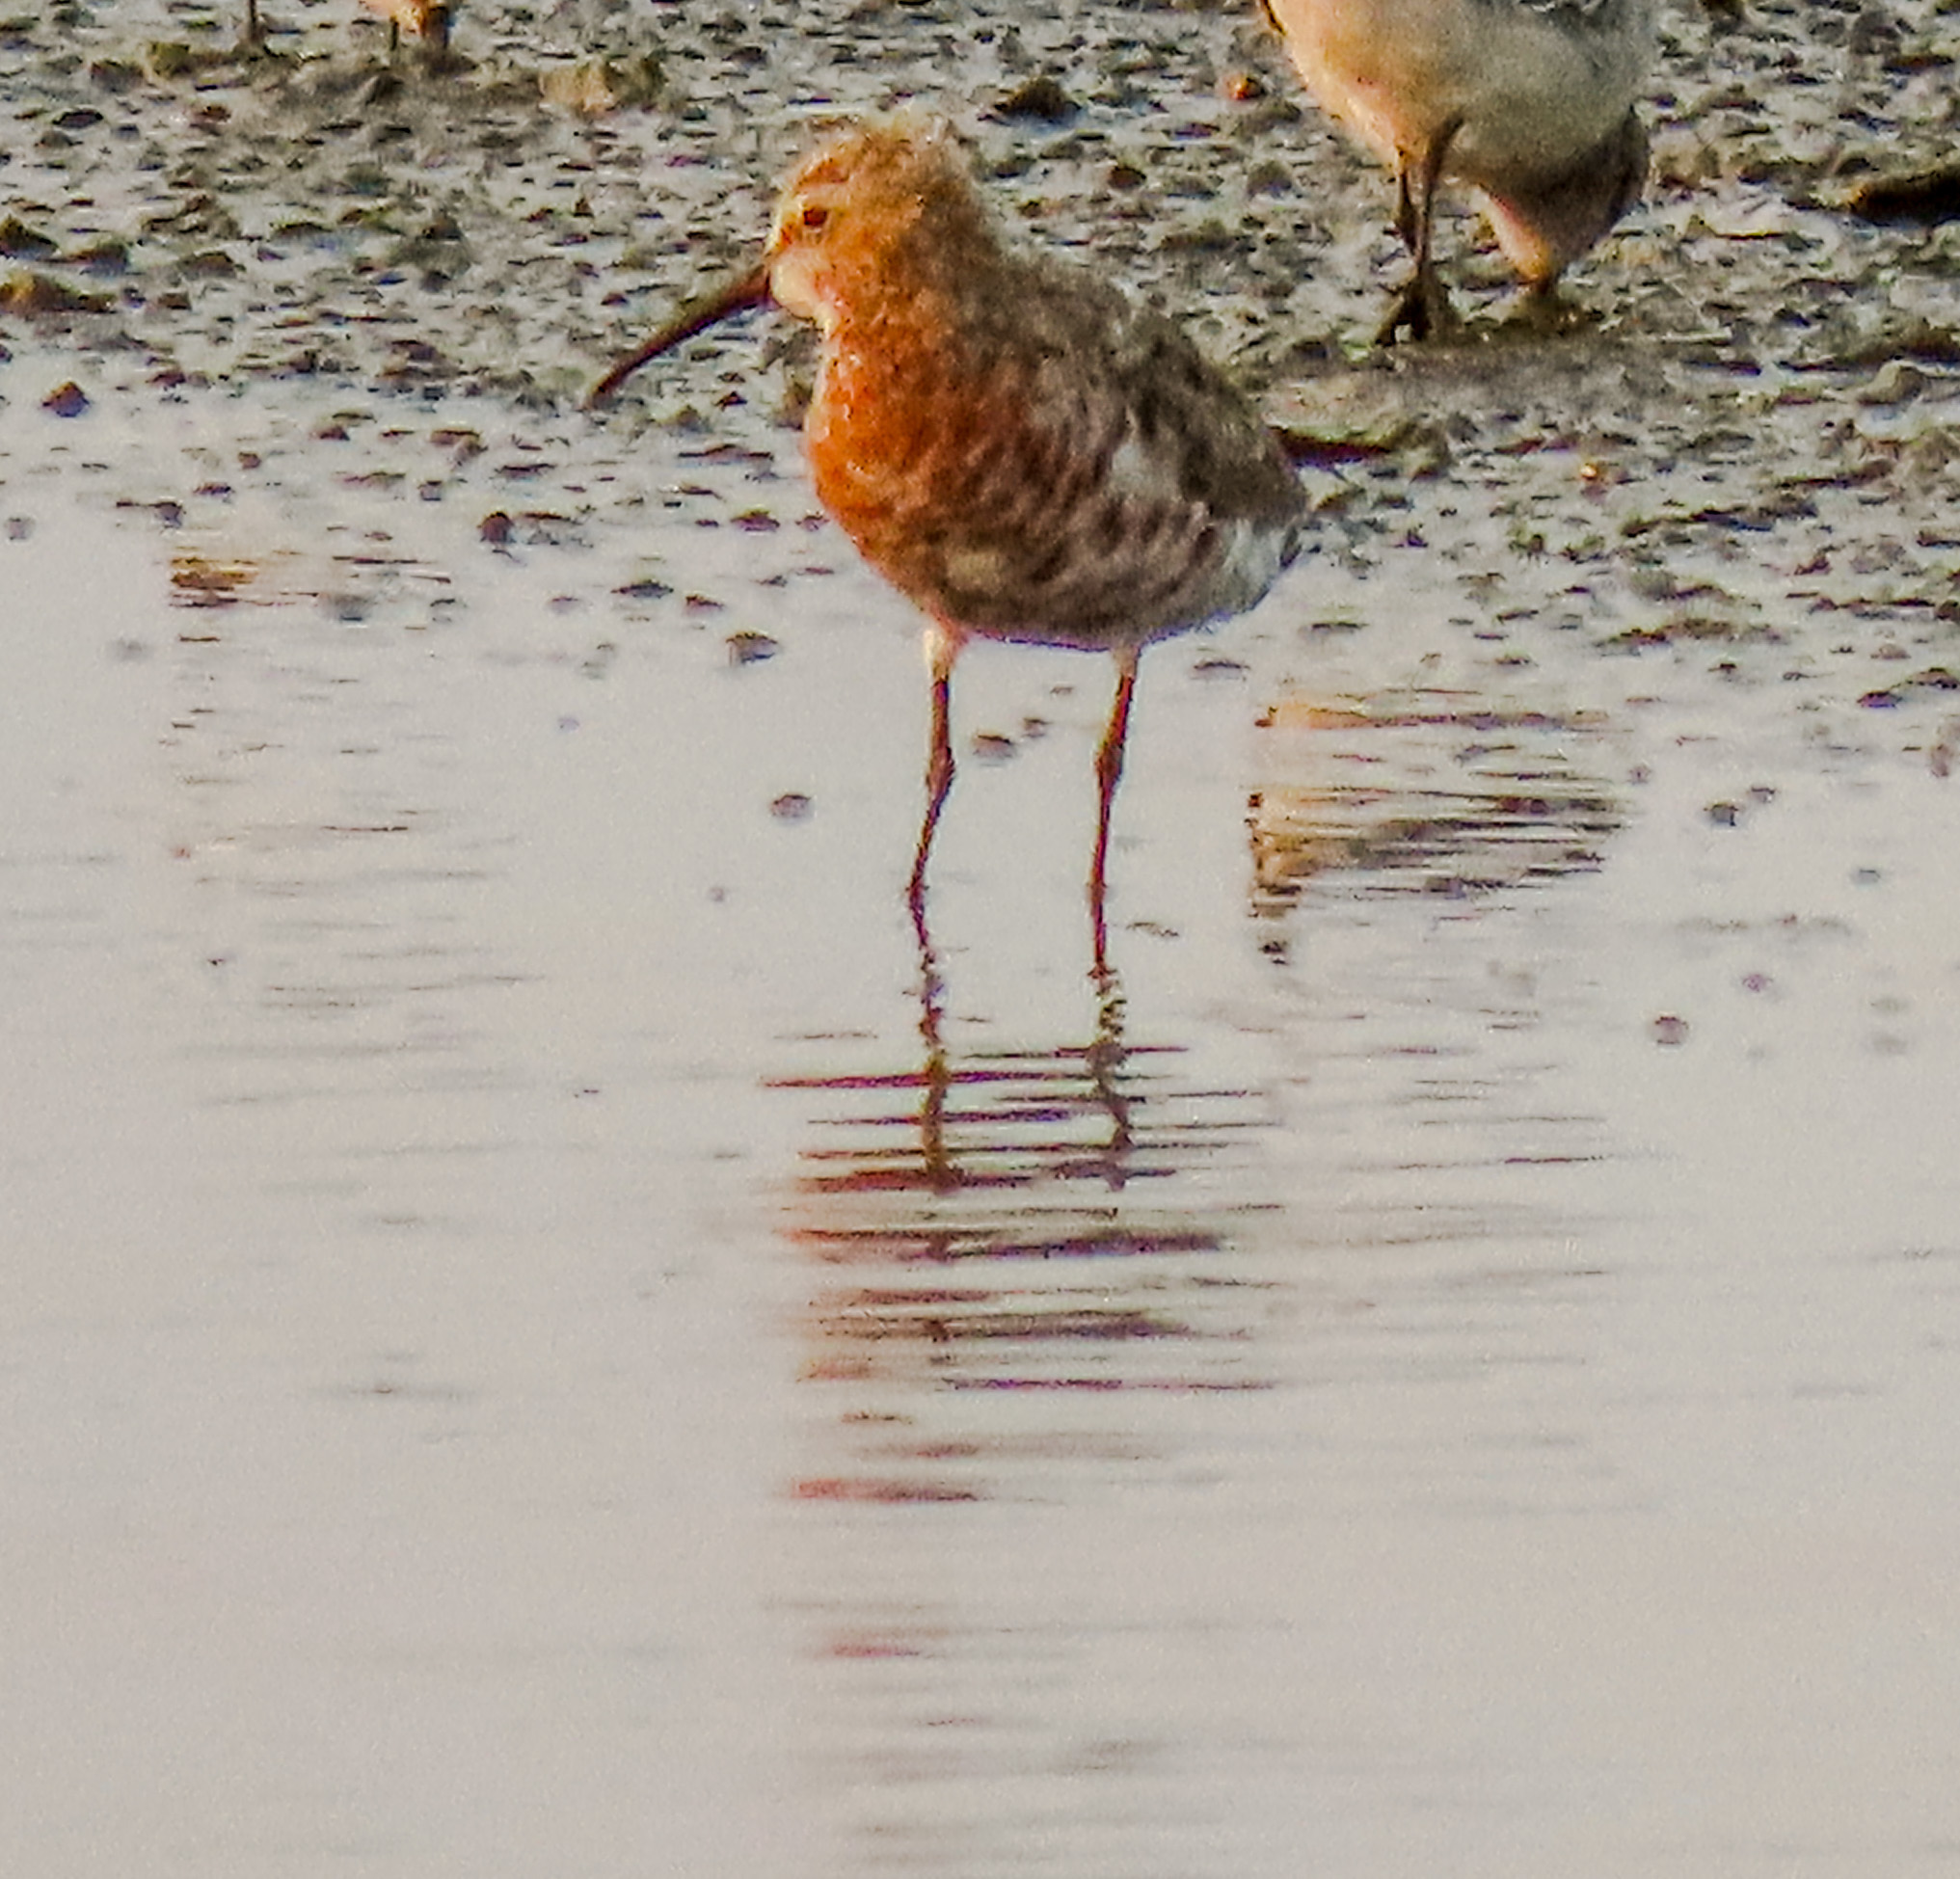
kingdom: Animalia
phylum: Chordata
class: Aves
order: Charadriiformes
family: Scolopacidae
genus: Calidris
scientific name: Calidris ferruginea
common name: Curlew sandpiper
